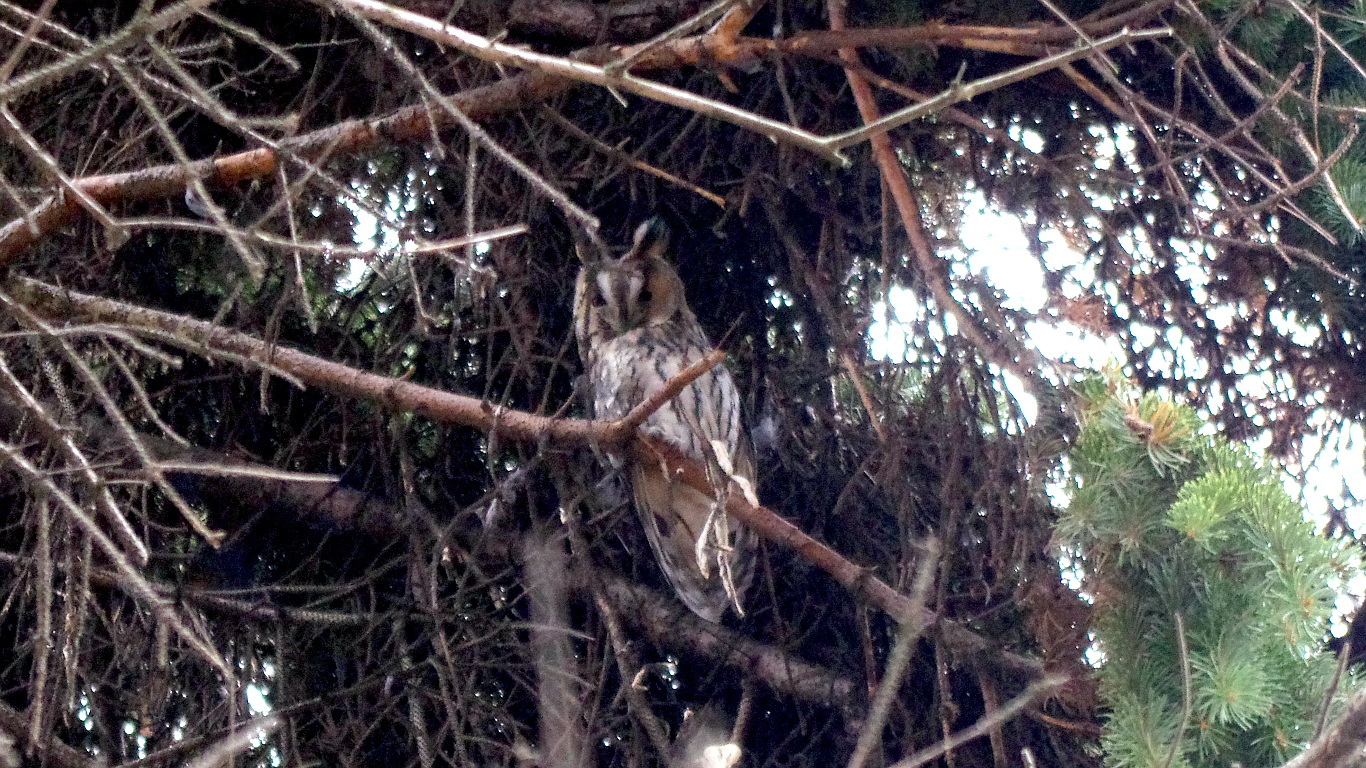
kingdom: Animalia
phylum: Chordata
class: Aves
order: Strigiformes
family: Strigidae
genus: Asio
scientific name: Asio otus
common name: Long-eared owl
